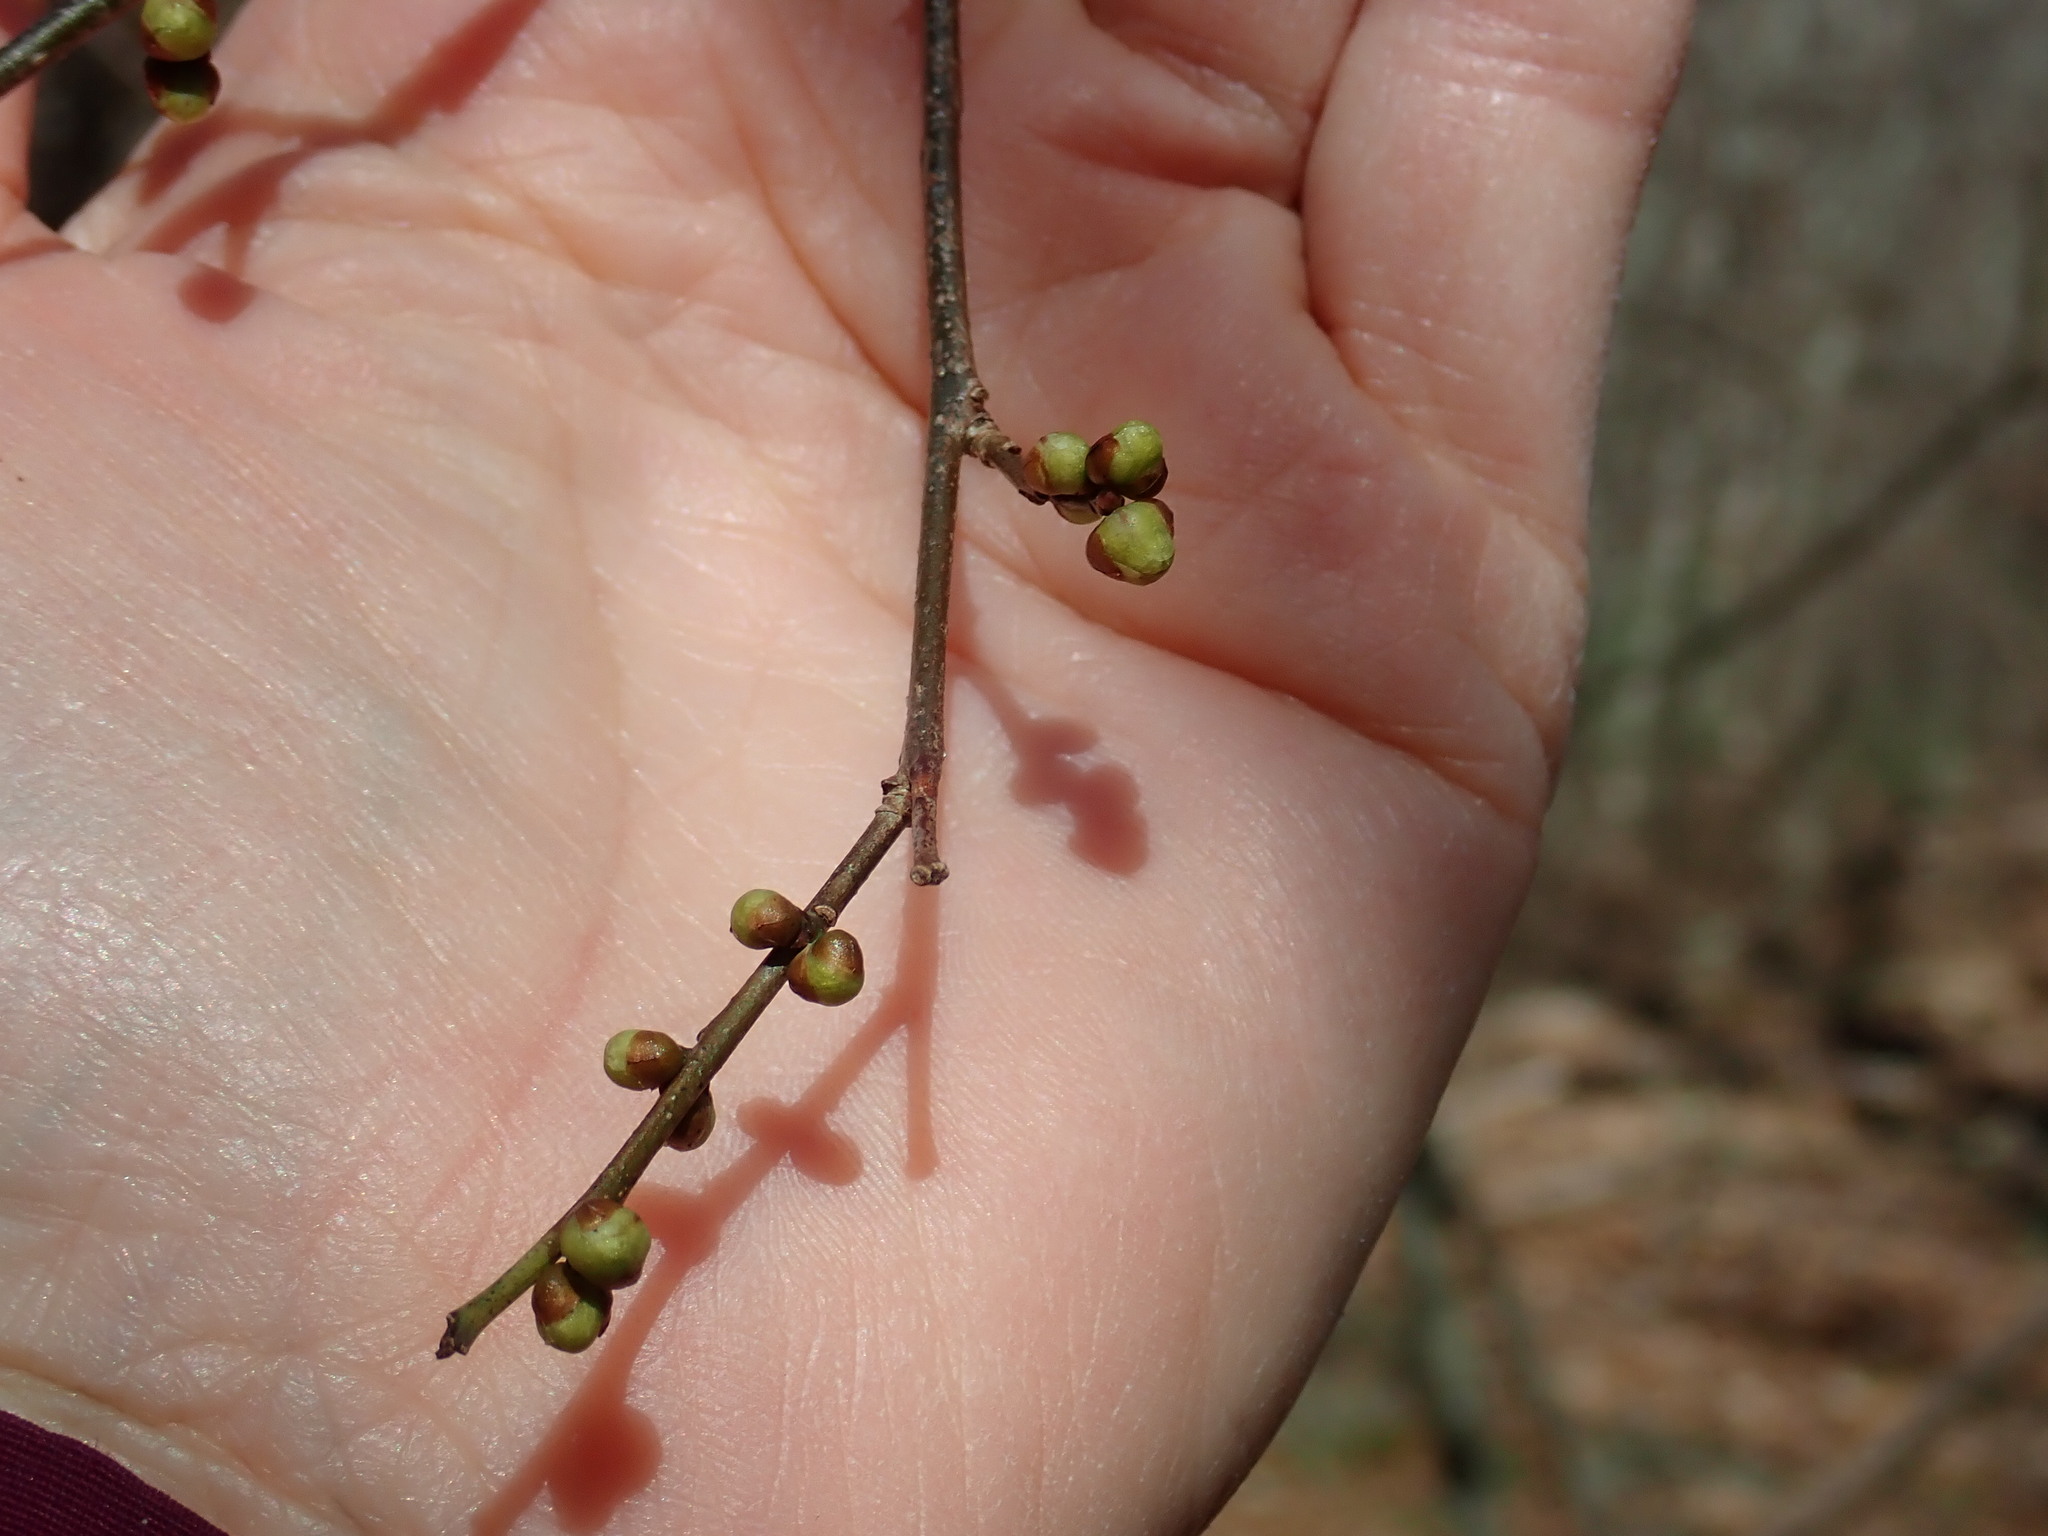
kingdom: Plantae
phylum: Tracheophyta
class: Magnoliopsida
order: Laurales
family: Lauraceae
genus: Lindera
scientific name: Lindera benzoin
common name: Spicebush
